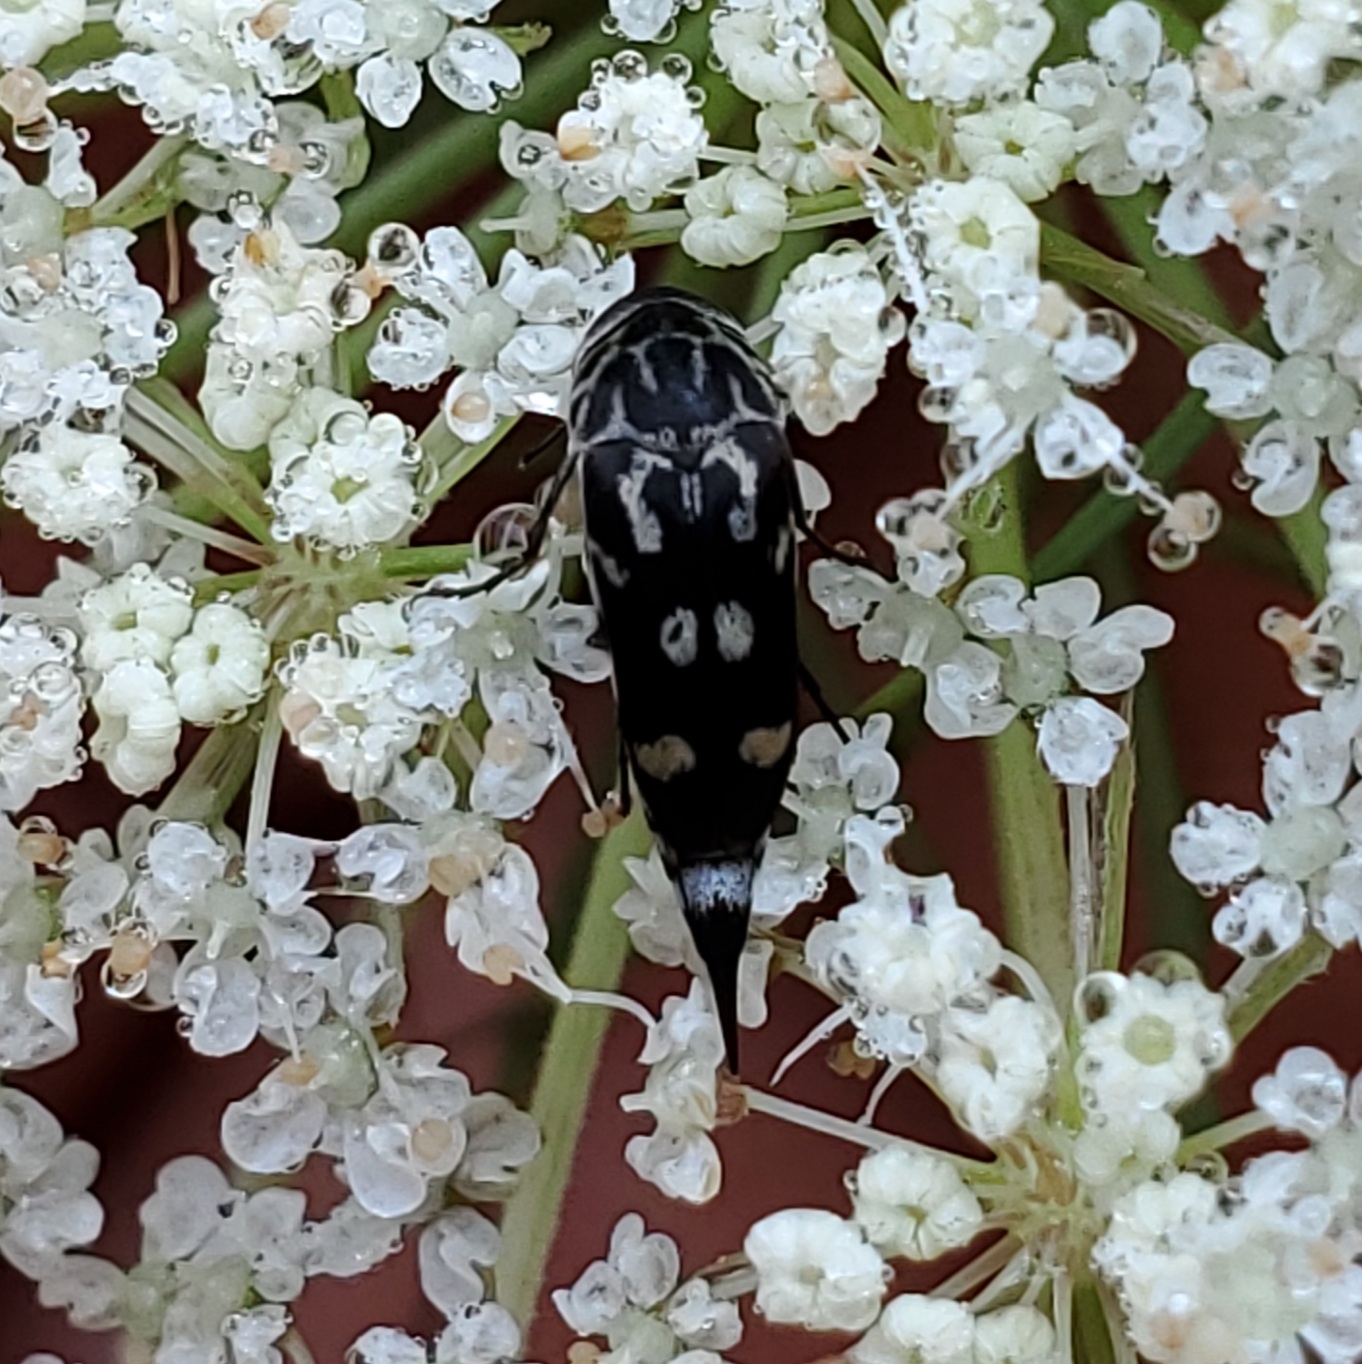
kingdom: Animalia
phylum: Arthropoda
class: Insecta
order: Coleoptera
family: Mordellidae
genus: Hoshihananomia
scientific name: Hoshihananomia octopunctata
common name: Eight-spotted tumbling flower beetle
